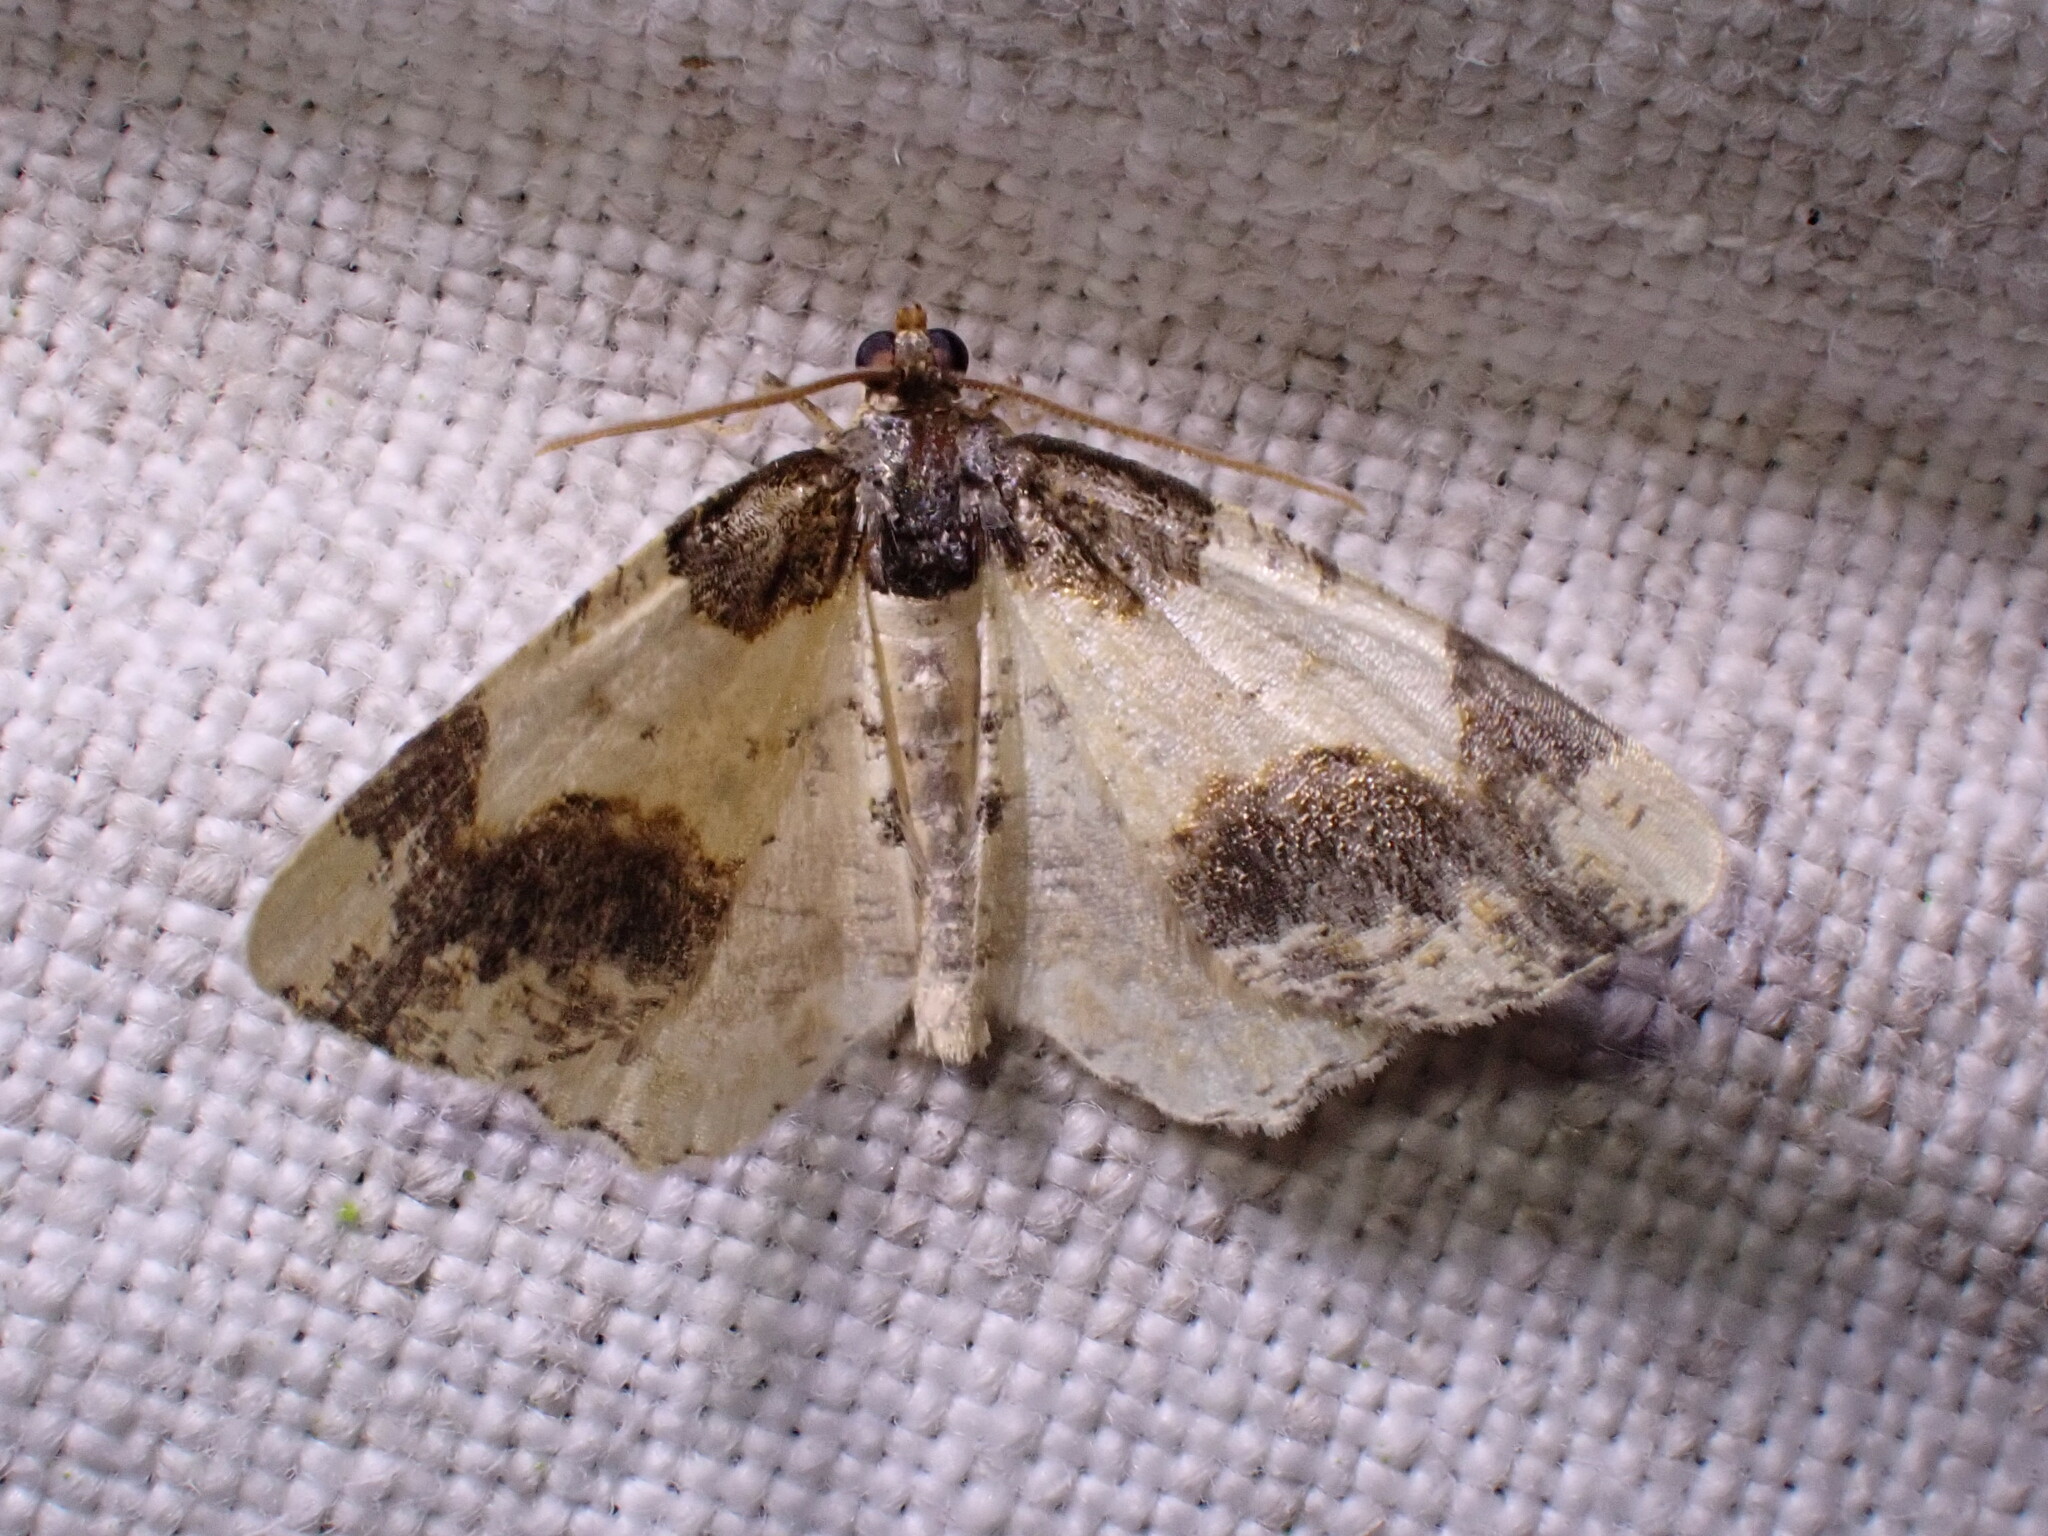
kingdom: Animalia
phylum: Arthropoda
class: Insecta
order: Lepidoptera
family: Geometridae
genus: Ligdia
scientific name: Ligdia adustata
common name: Scorched carpet
